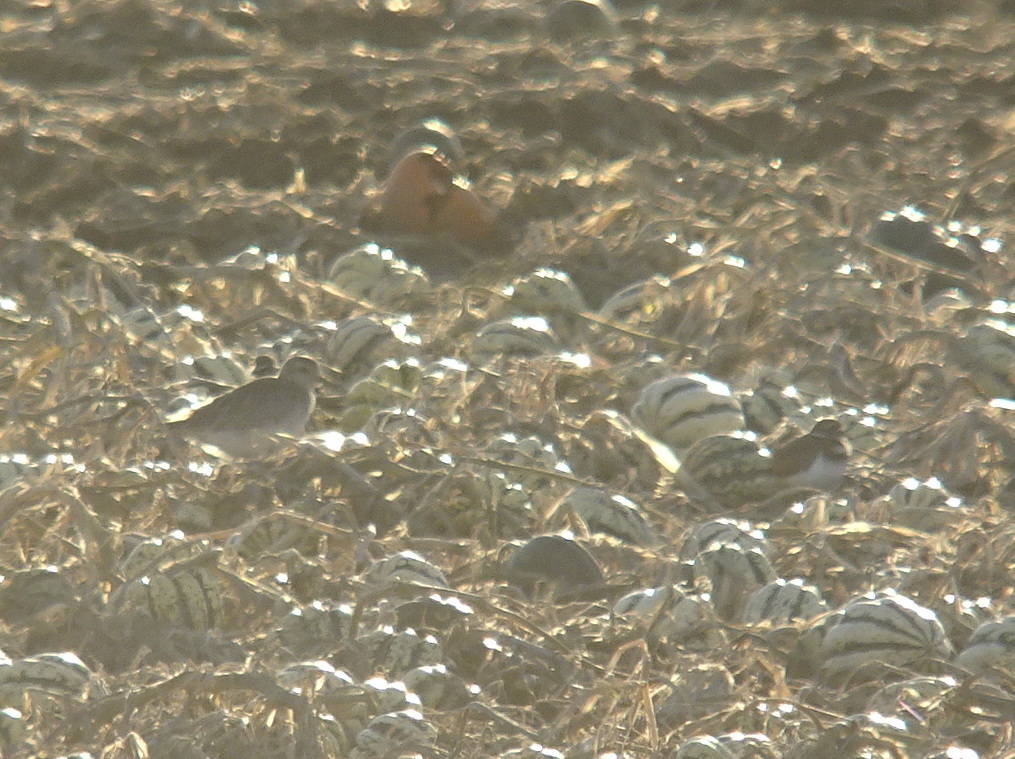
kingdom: Animalia
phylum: Chordata
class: Aves
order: Charadriiformes
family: Charadriidae
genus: Pluvialis
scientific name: Pluvialis squatarola
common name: Grey plover
